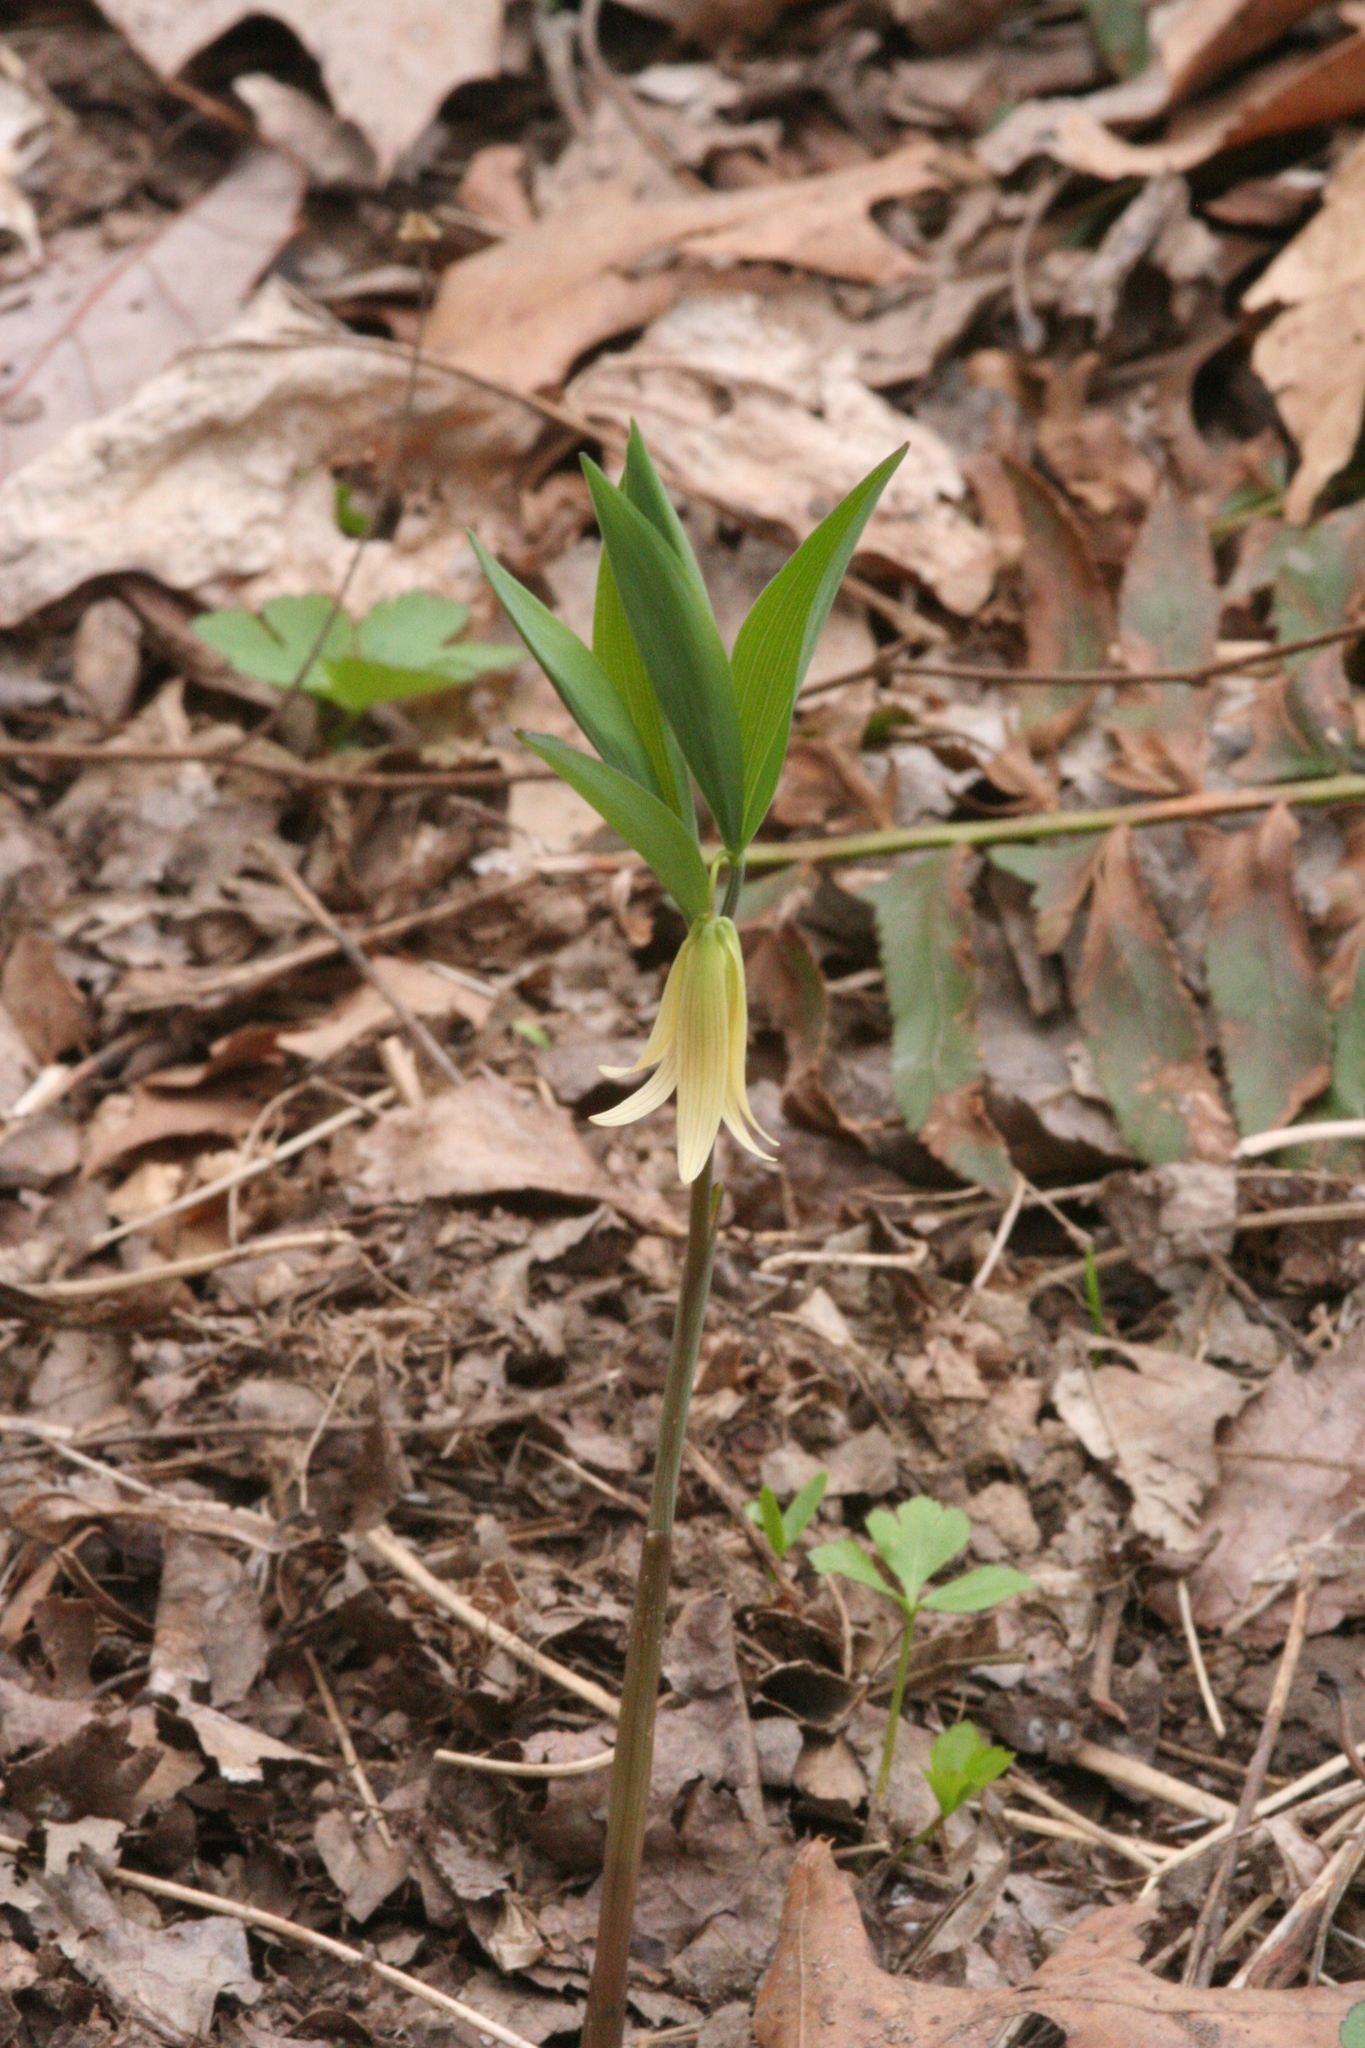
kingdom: Plantae
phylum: Tracheophyta
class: Liliopsida
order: Liliales
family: Colchicaceae
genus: Uvularia
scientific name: Uvularia sessilifolia
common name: Straw-lily
